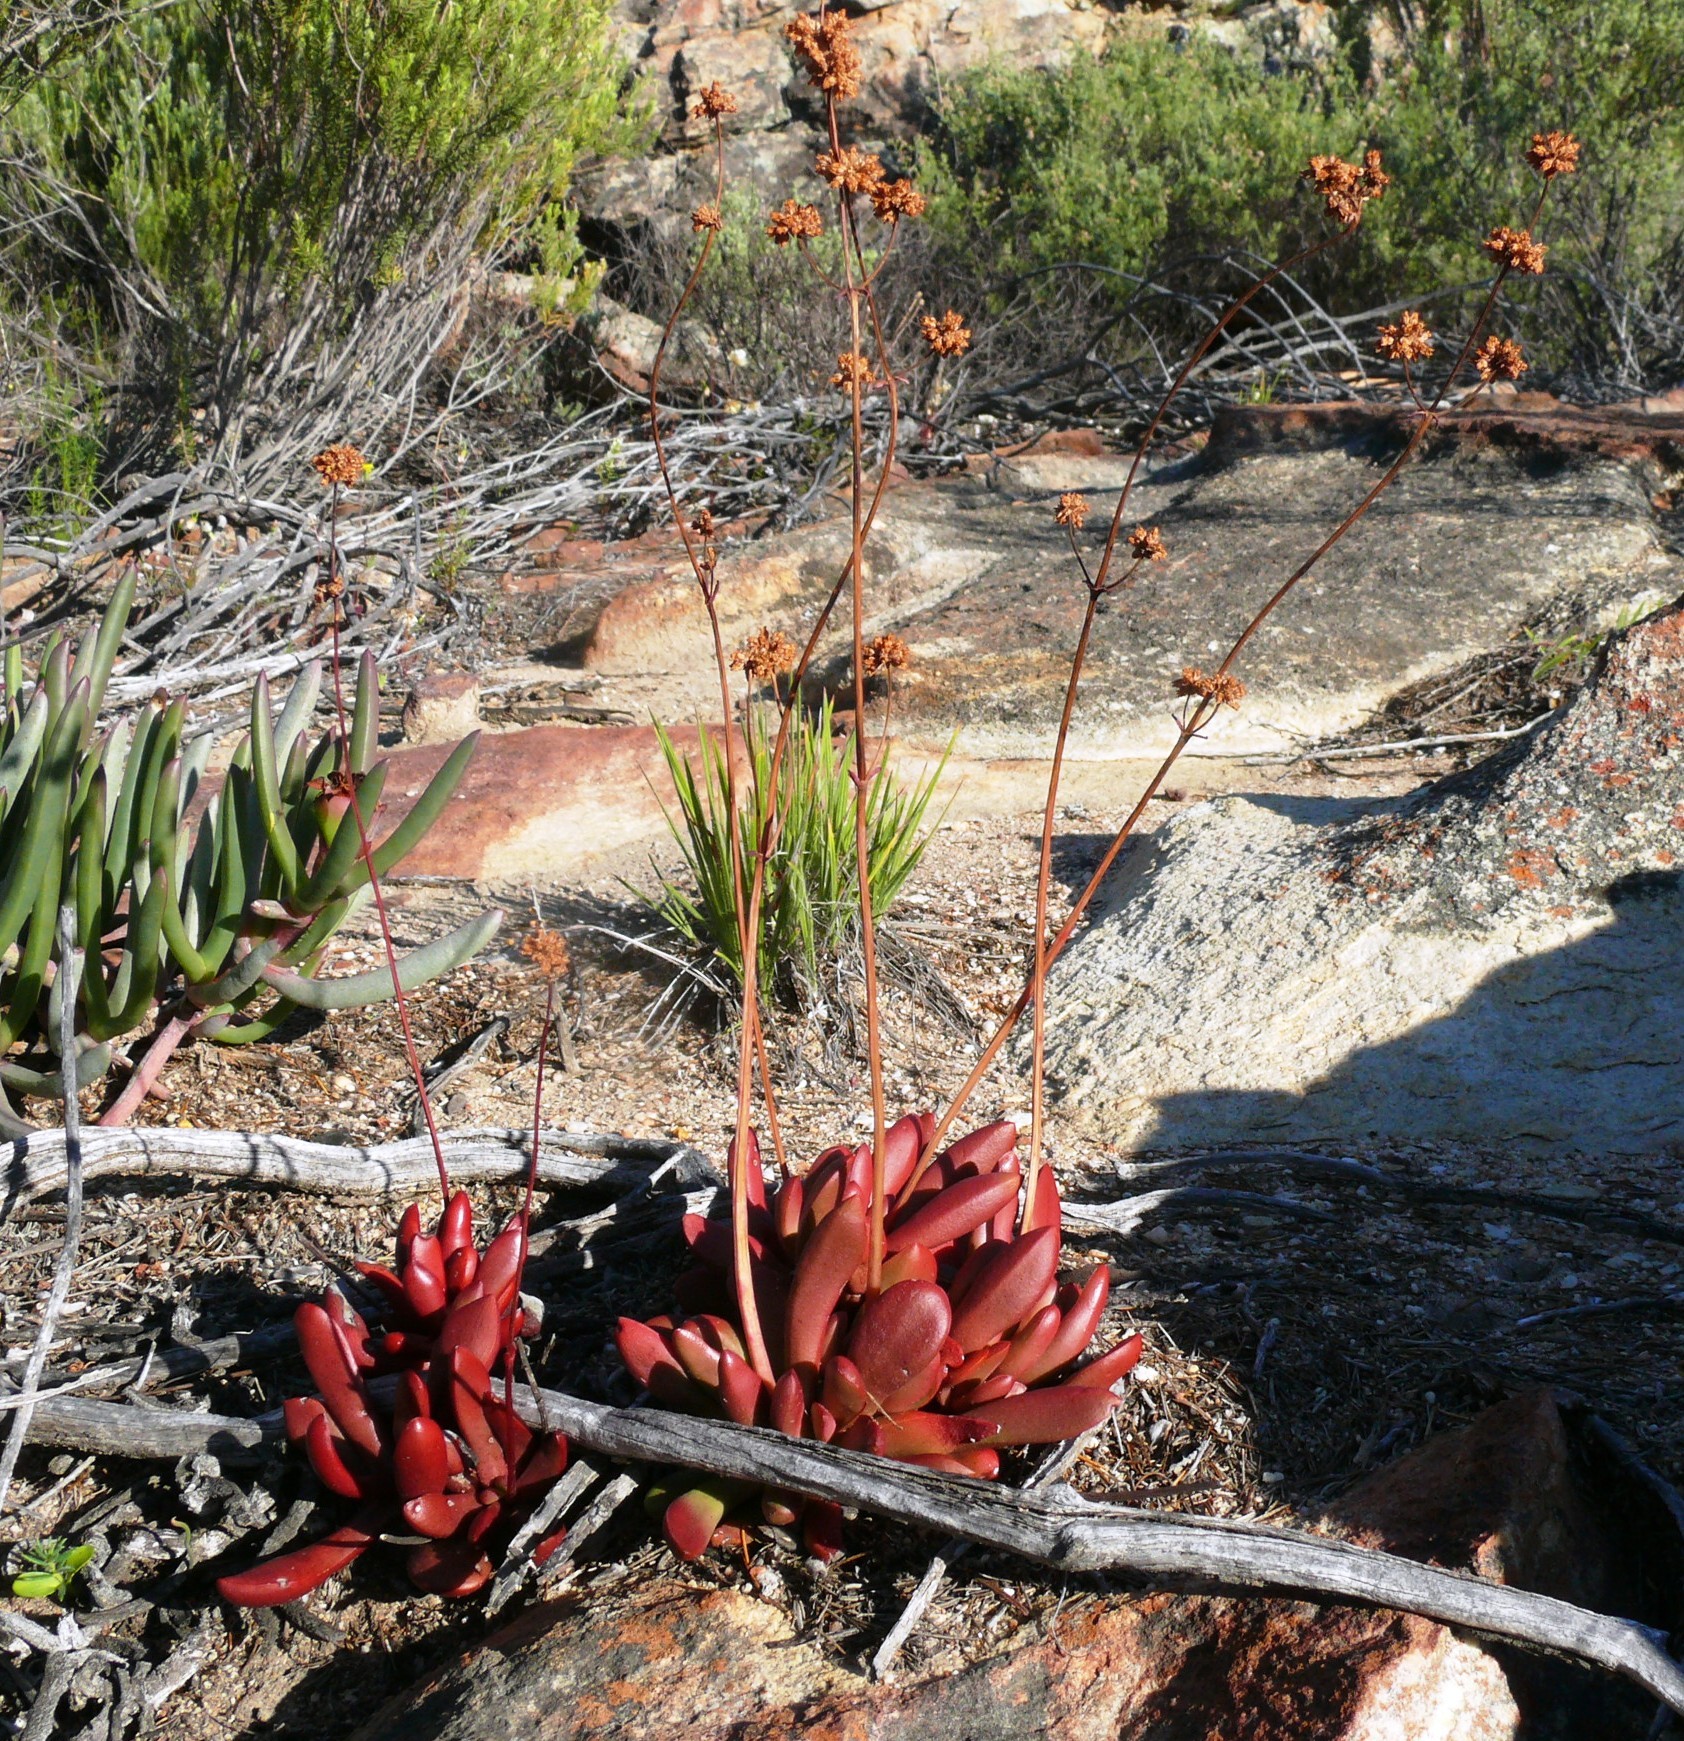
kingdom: Plantae
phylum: Tracheophyta
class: Magnoliopsida
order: Saxifragales
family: Crassulaceae
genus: Crassula
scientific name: Crassula clavata
